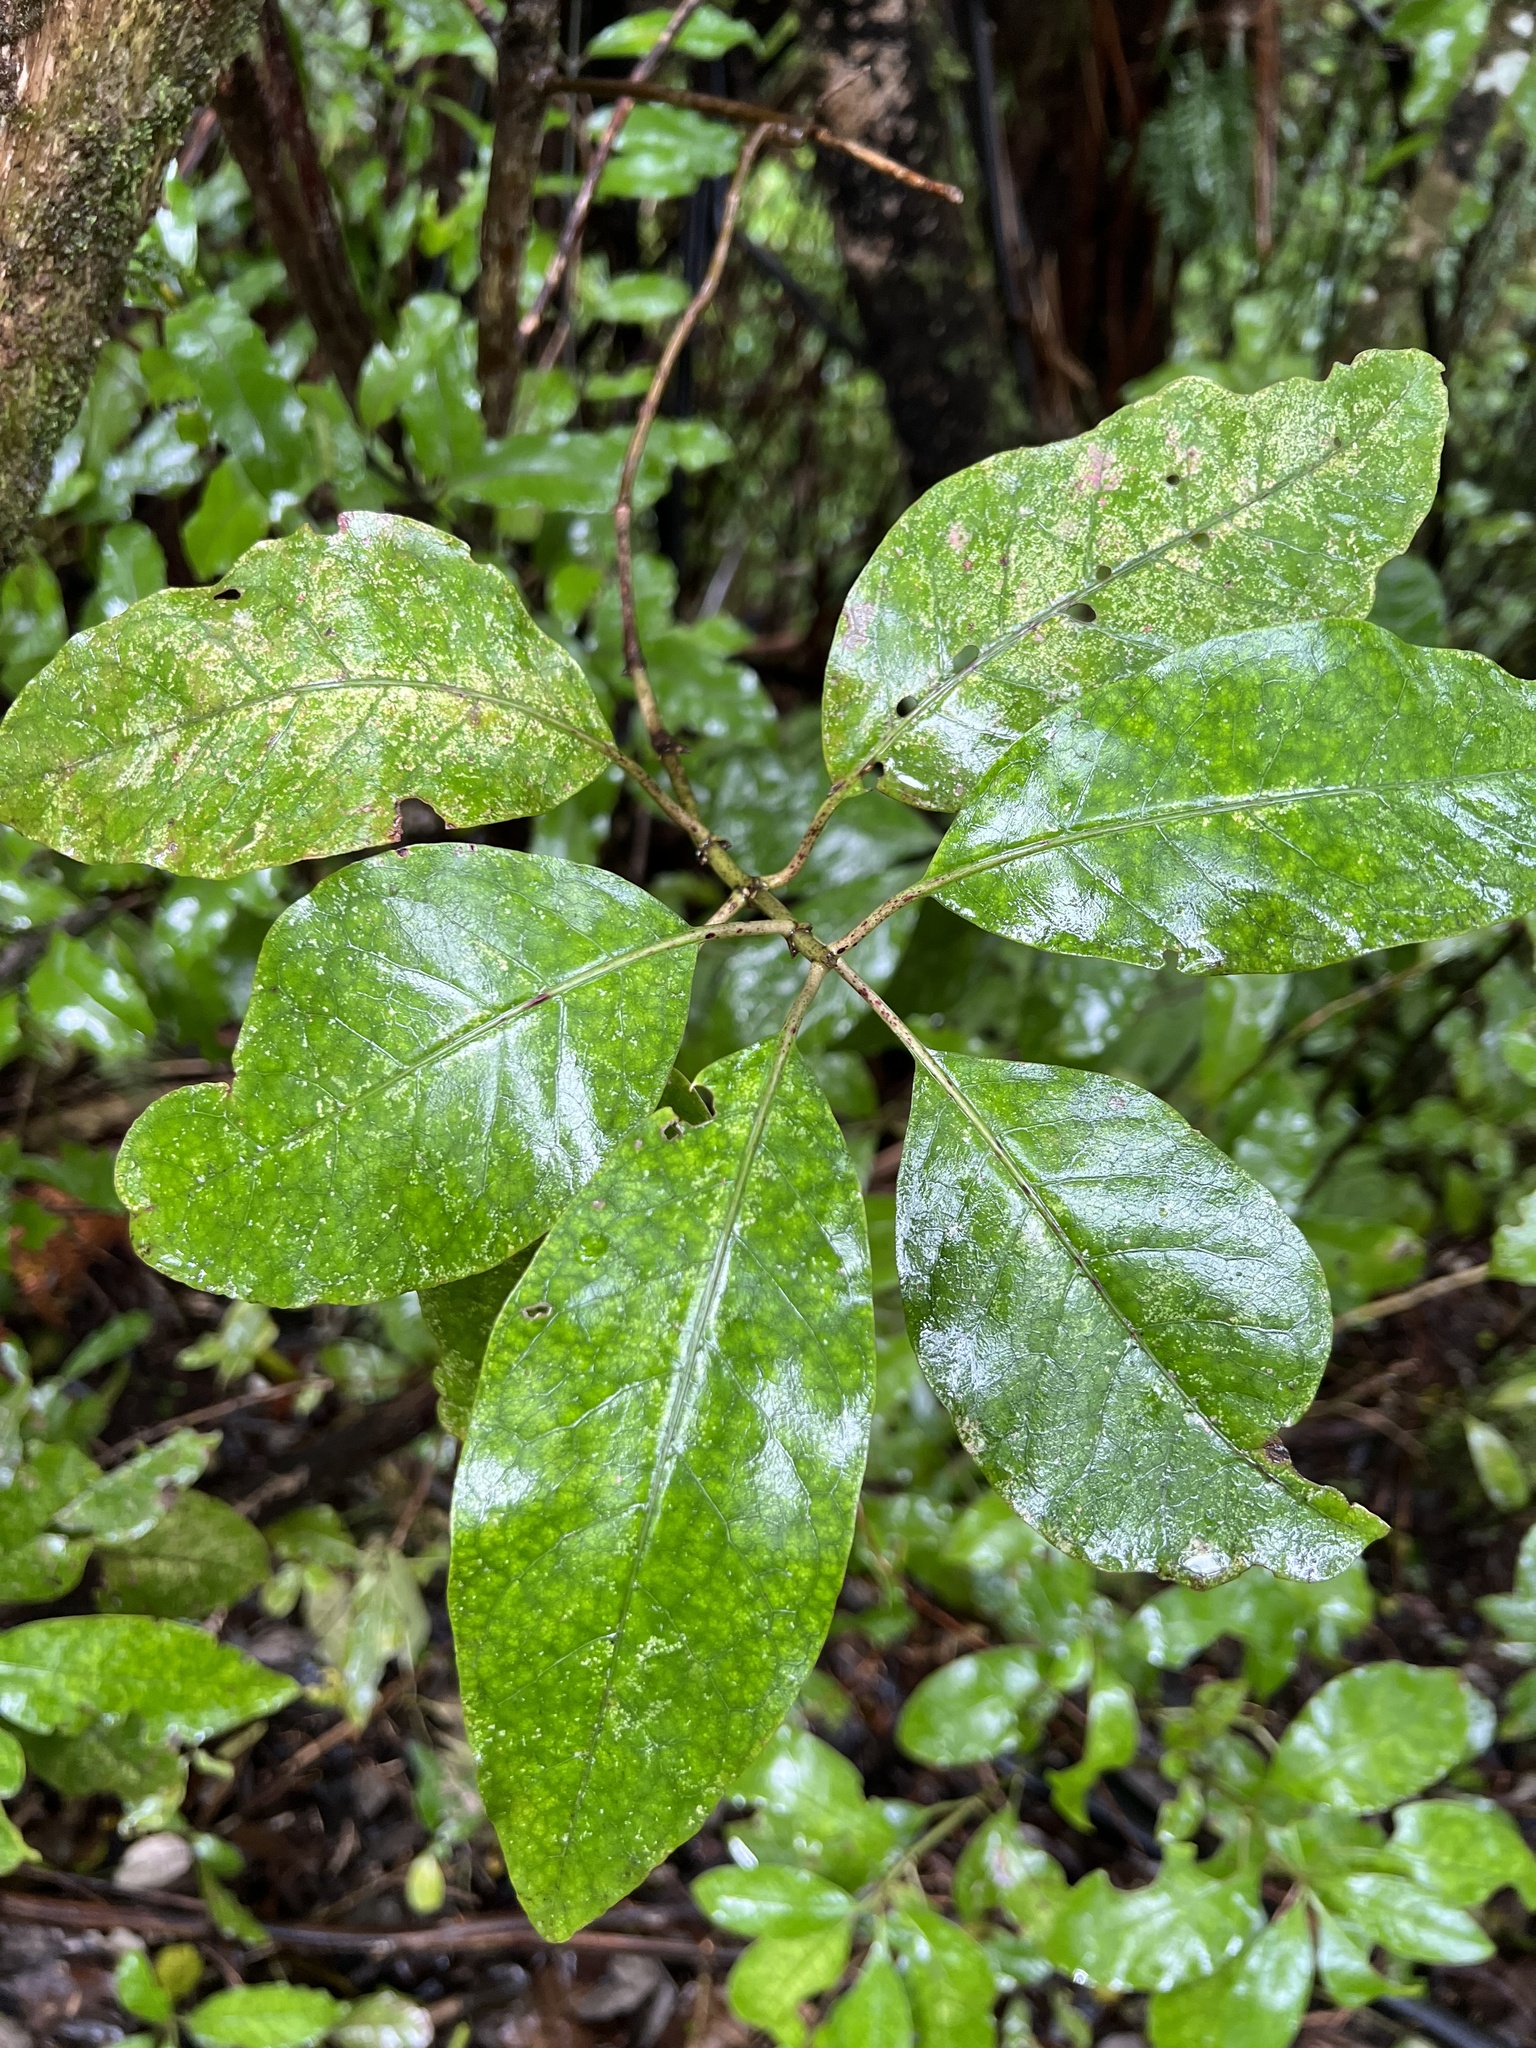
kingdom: Plantae
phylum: Tracheophyta
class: Magnoliopsida
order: Gentianales
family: Rubiaceae
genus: Coprosma
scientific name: Coprosma autumnalis
